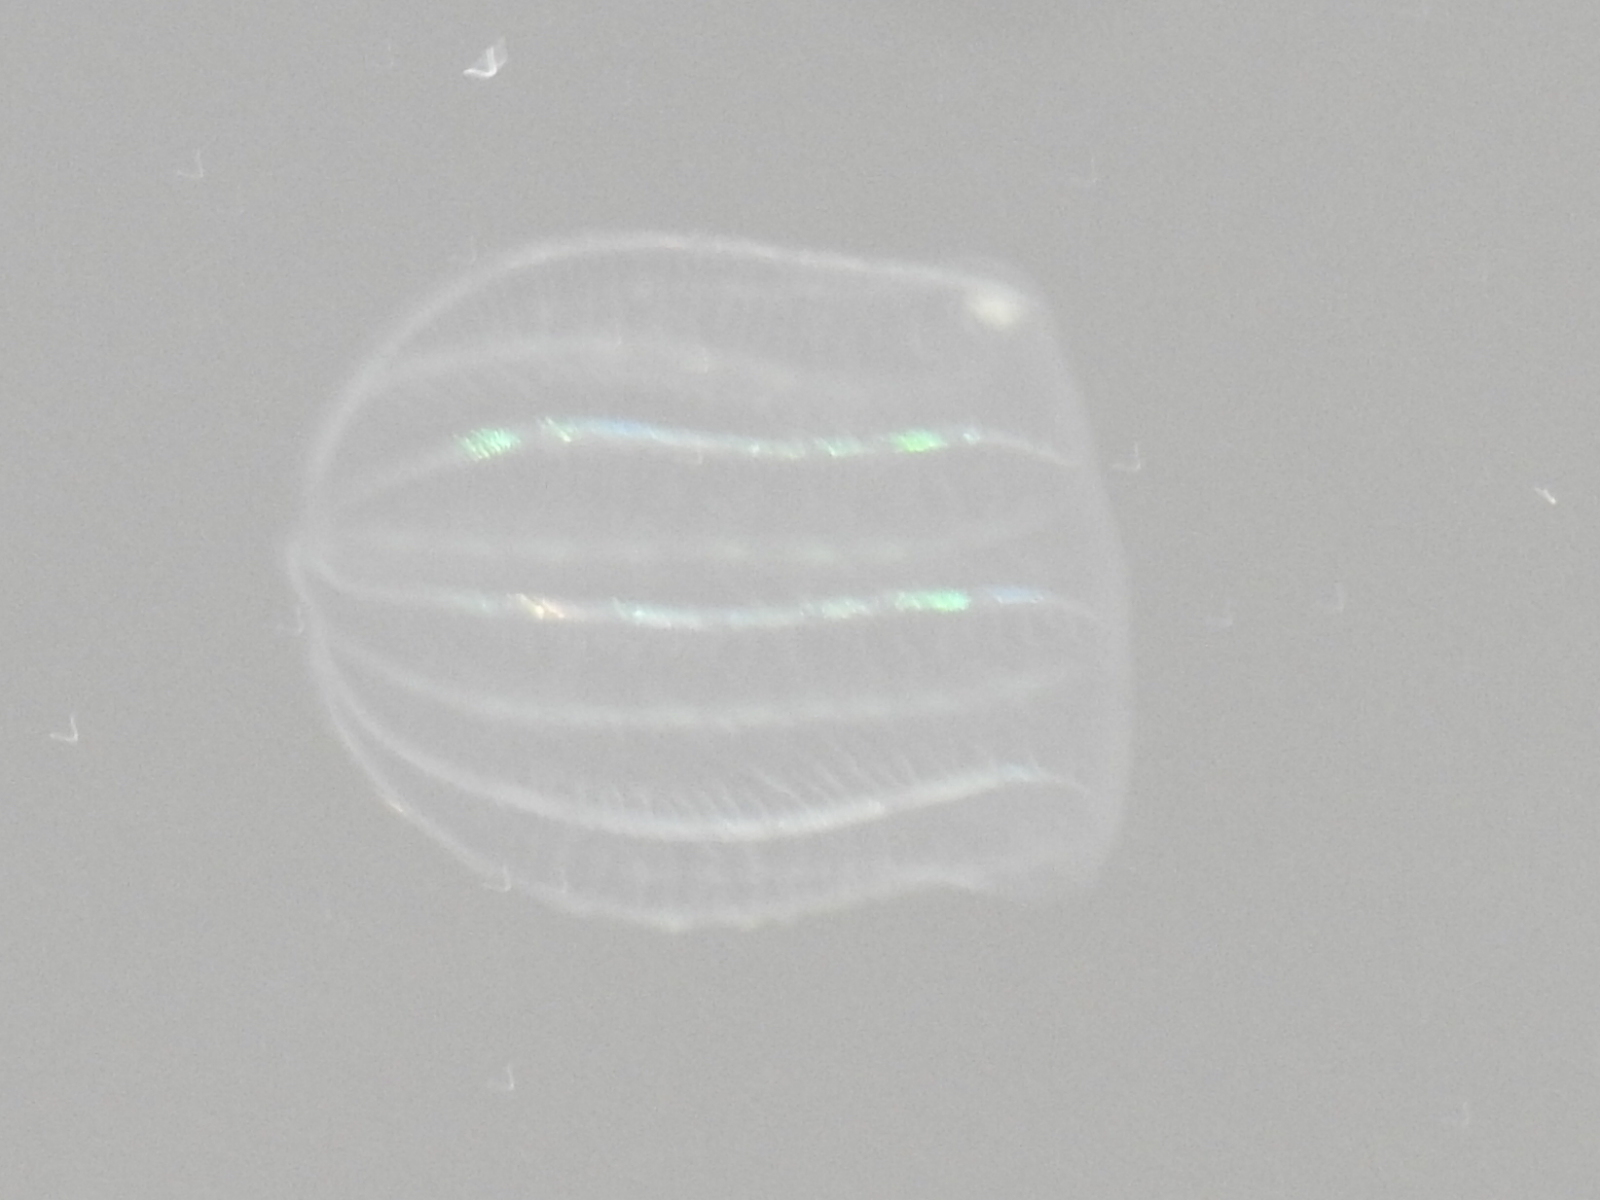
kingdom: Animalia
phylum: Ctenophora
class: Nuda
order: Beroida
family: Beroidae
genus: Beroe
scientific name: Beroe ovata
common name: Flattened helmet comb jelly
